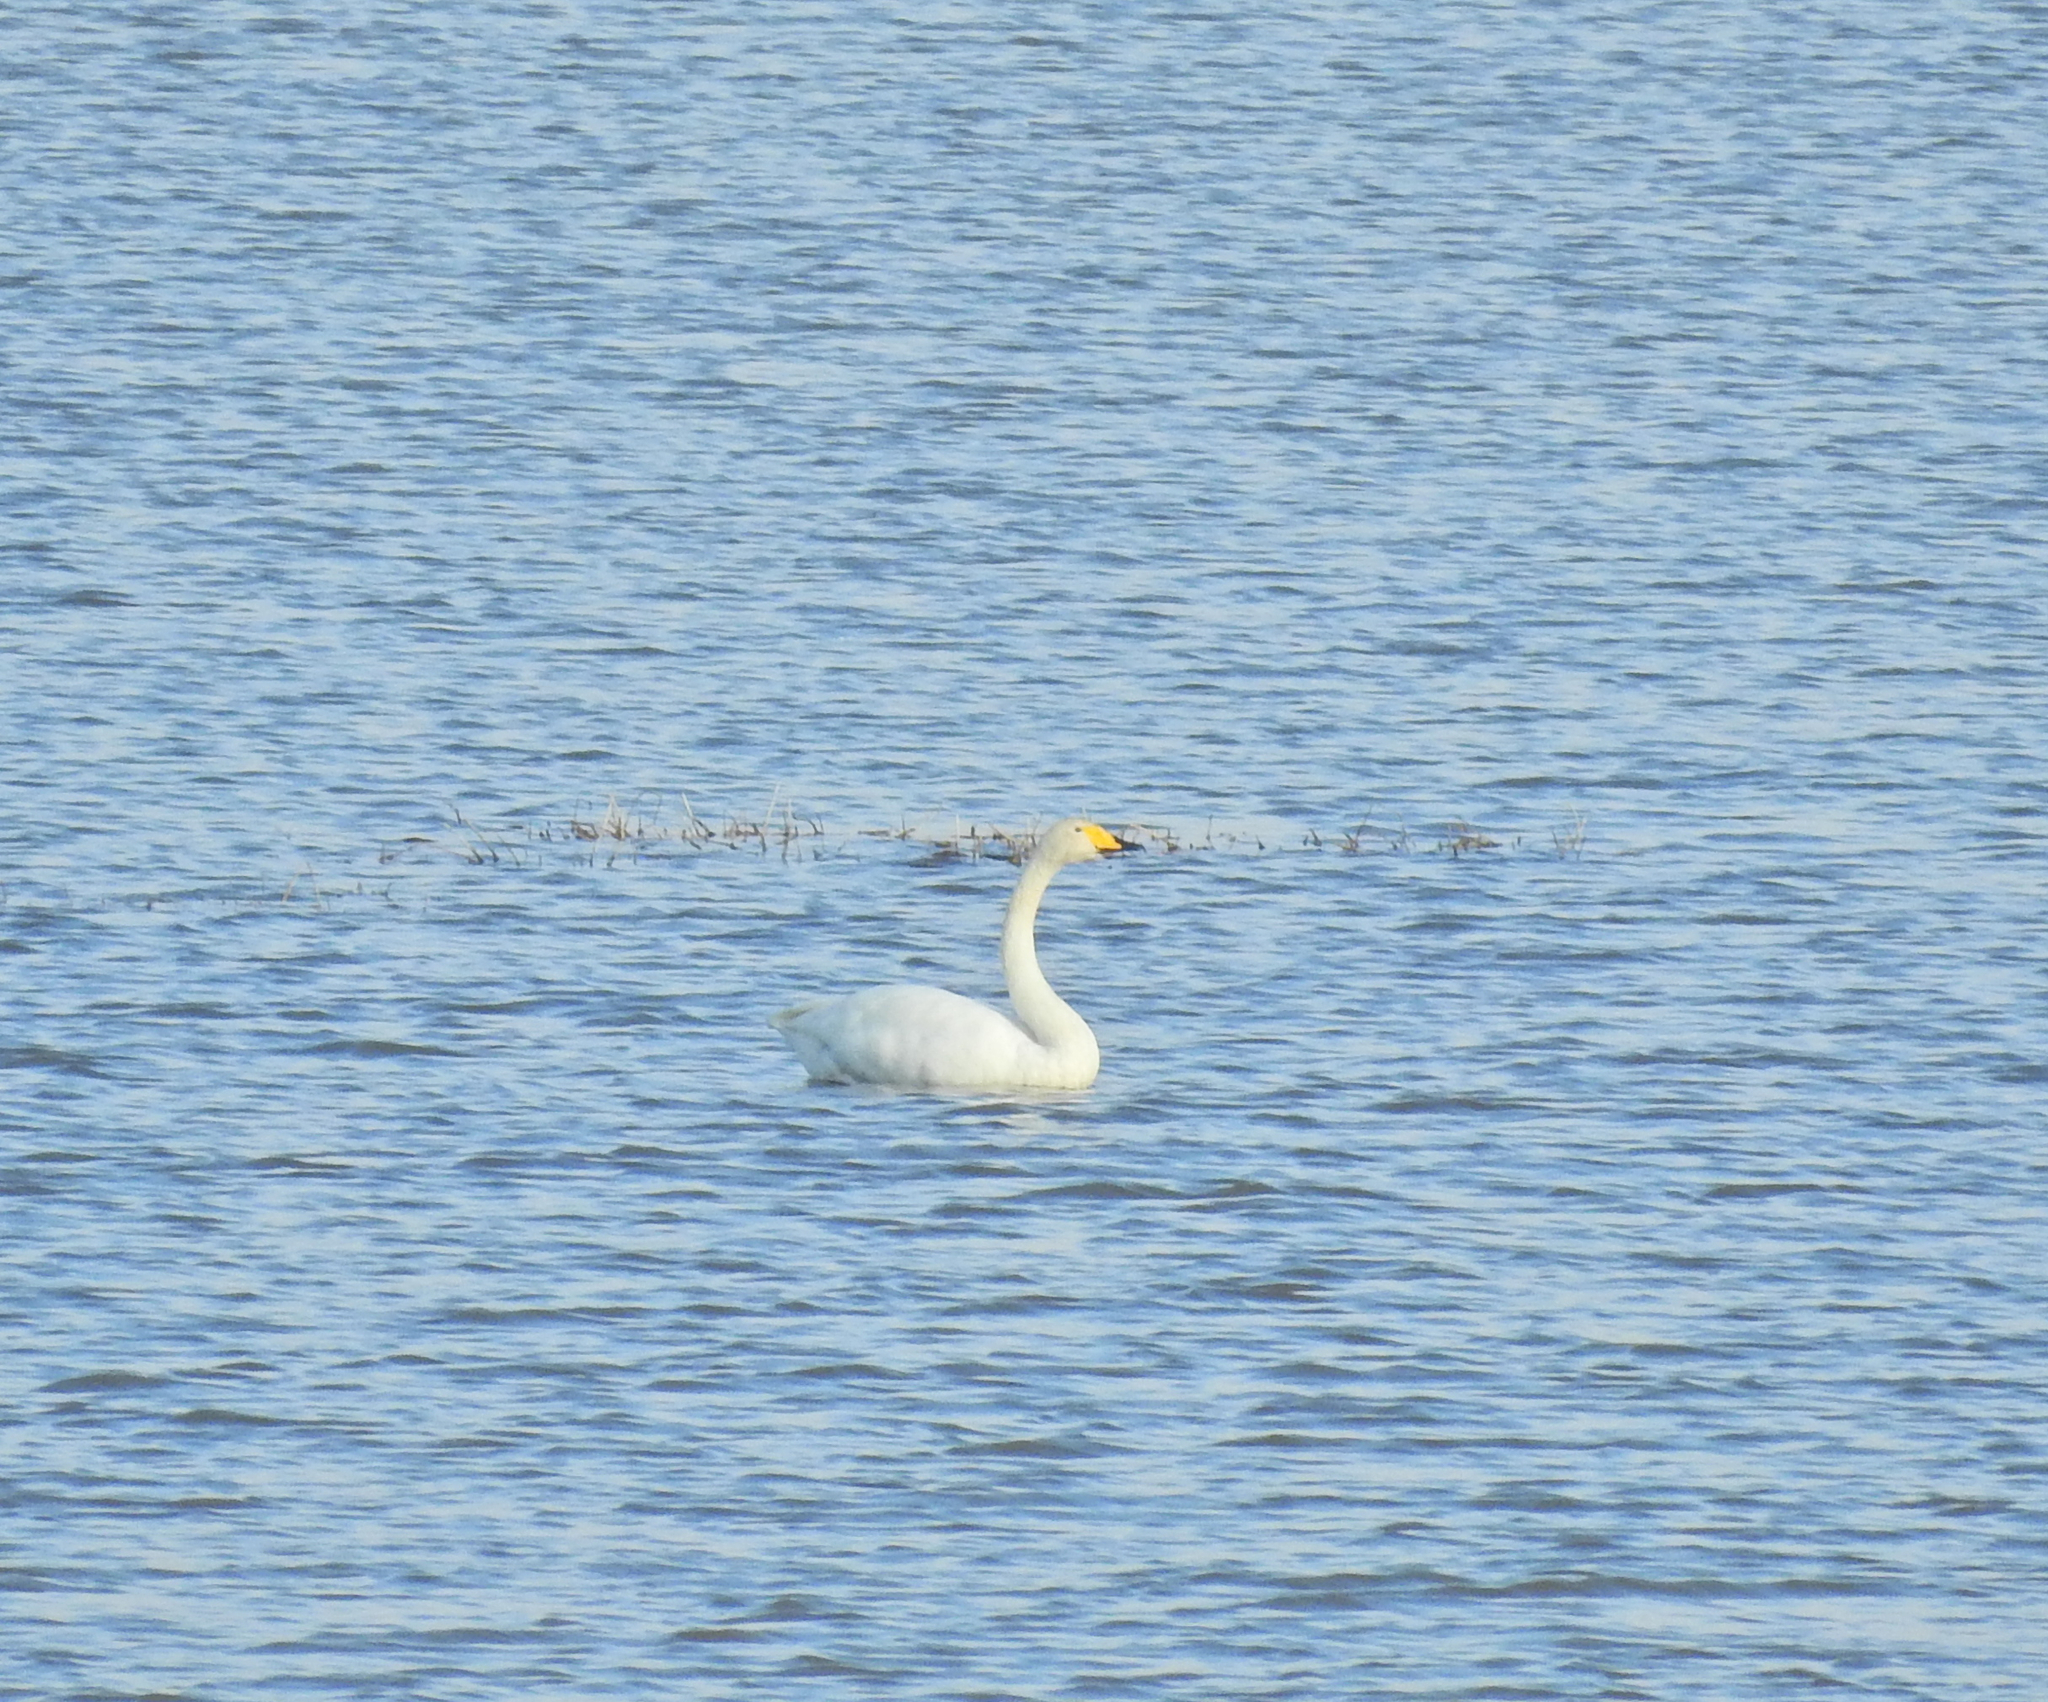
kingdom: Animalia
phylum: Chordata
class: Aves
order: Anseriformes
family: Anatidae
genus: Cygnus
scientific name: Cygnus cygnus
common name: Whooper swan
